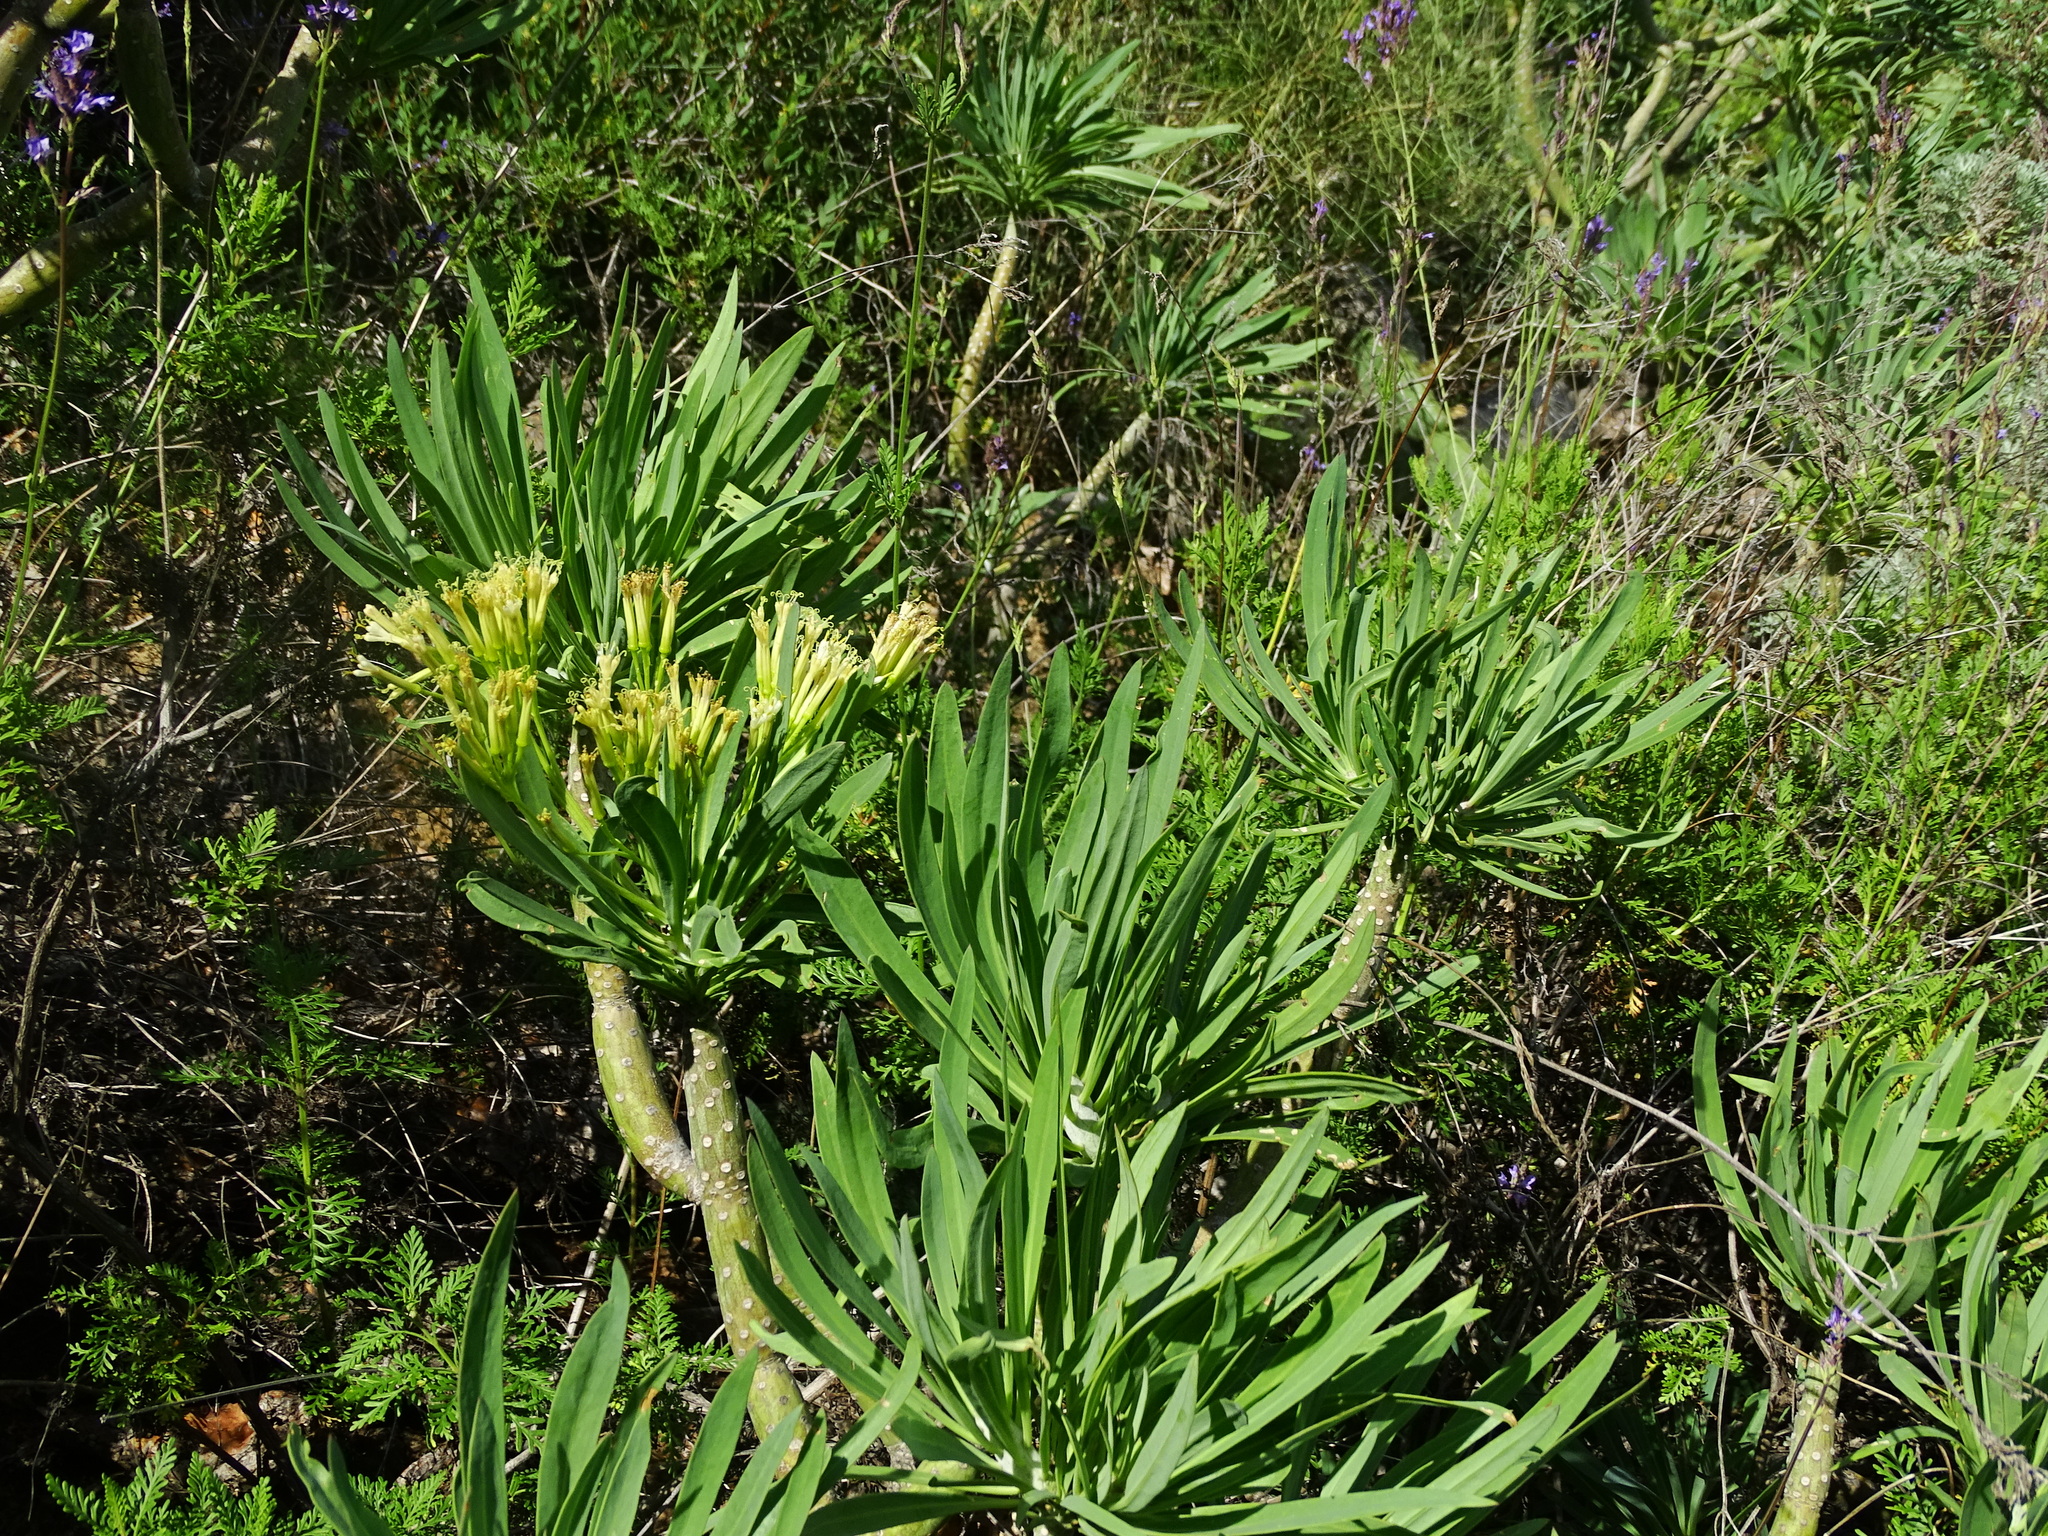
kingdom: Plantae
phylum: Tracheophyta
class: Magnoliopsida
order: Asterales
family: Asteraceae
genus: Kleinia
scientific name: Kleinia neriifolia
